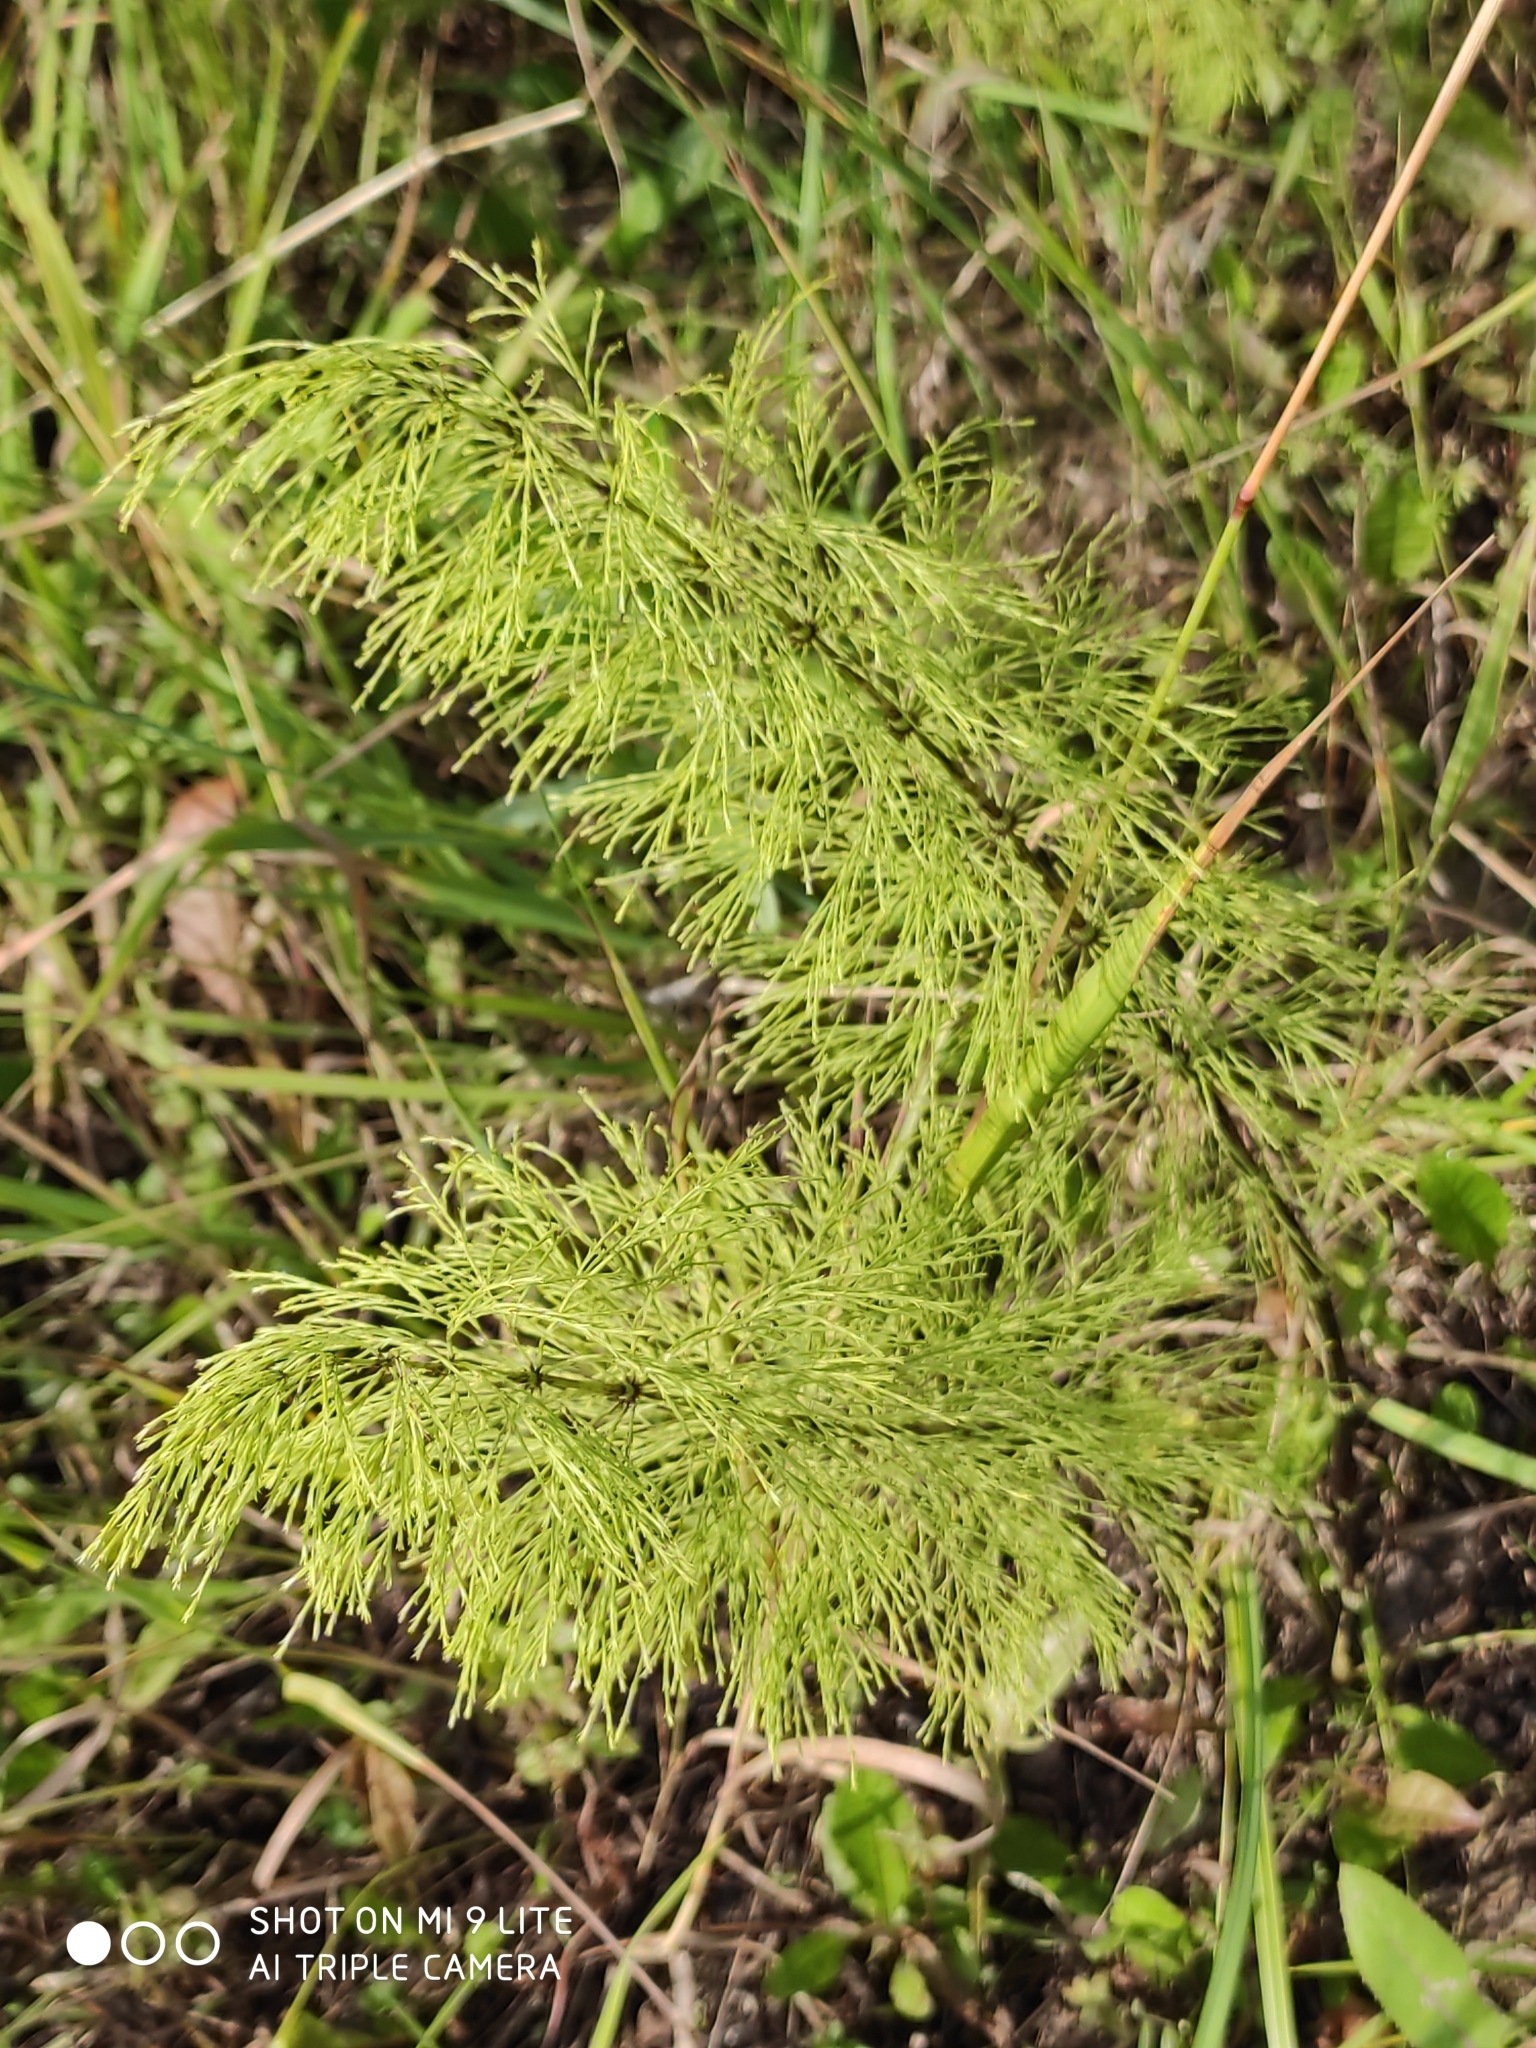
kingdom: Plantae
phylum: Tracheophyta
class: Polypodiopsida
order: Equisetales
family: Equisetaceae
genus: Equisetum
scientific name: Equisetum sylvaticum
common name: Wood horsetail
